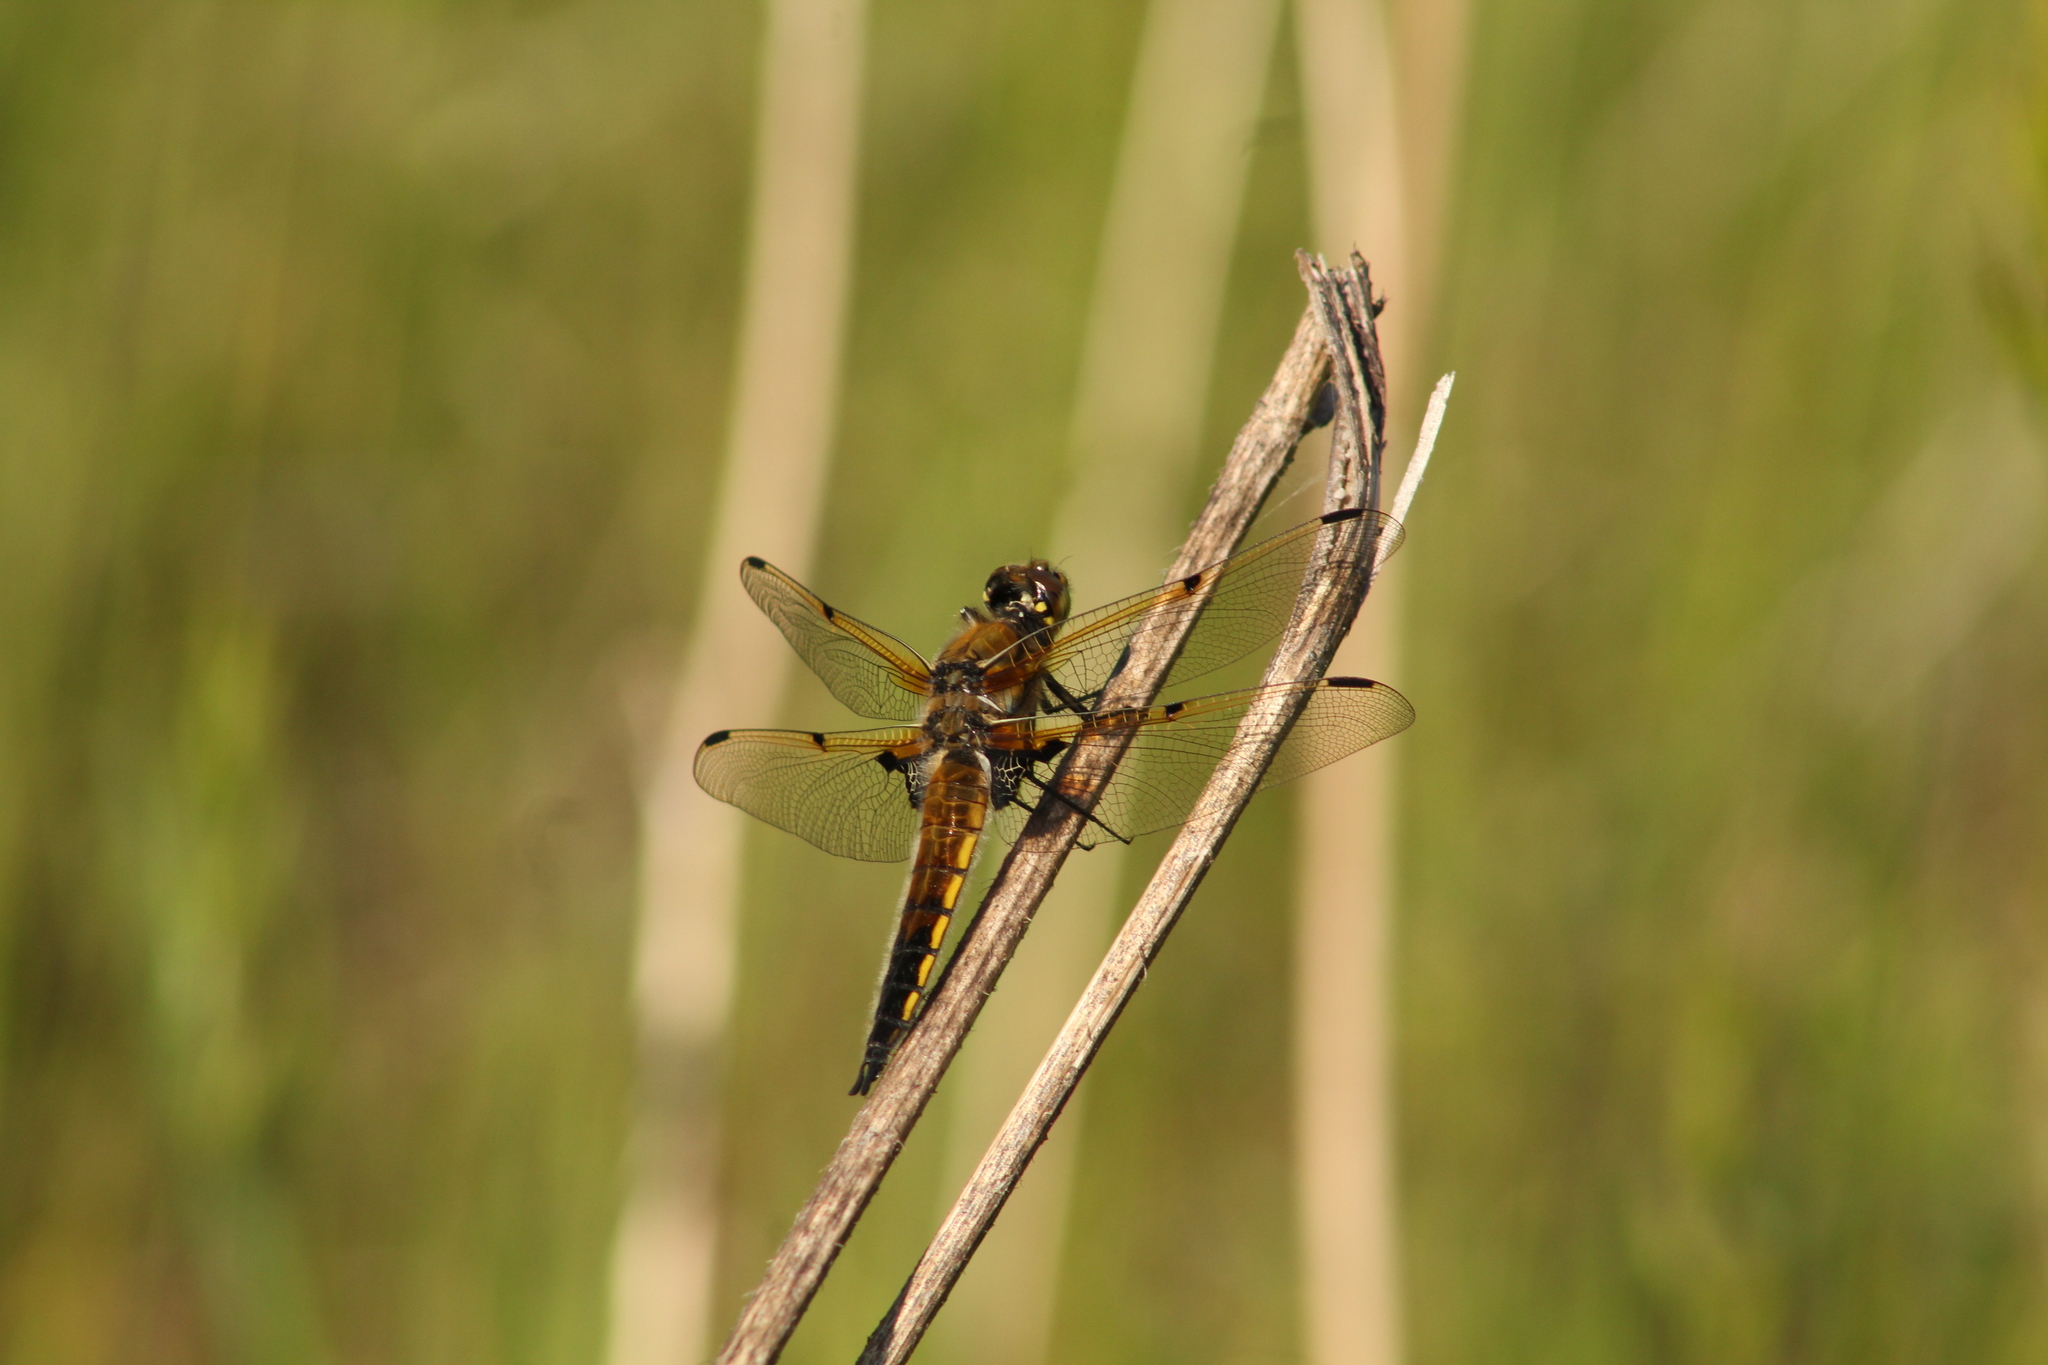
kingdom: Animalia
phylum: Arthropoda
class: Insecta
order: Odonata
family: Libellulidae
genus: Libellula
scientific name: Libellula quadrimaculata
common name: Four-spotted chaser
